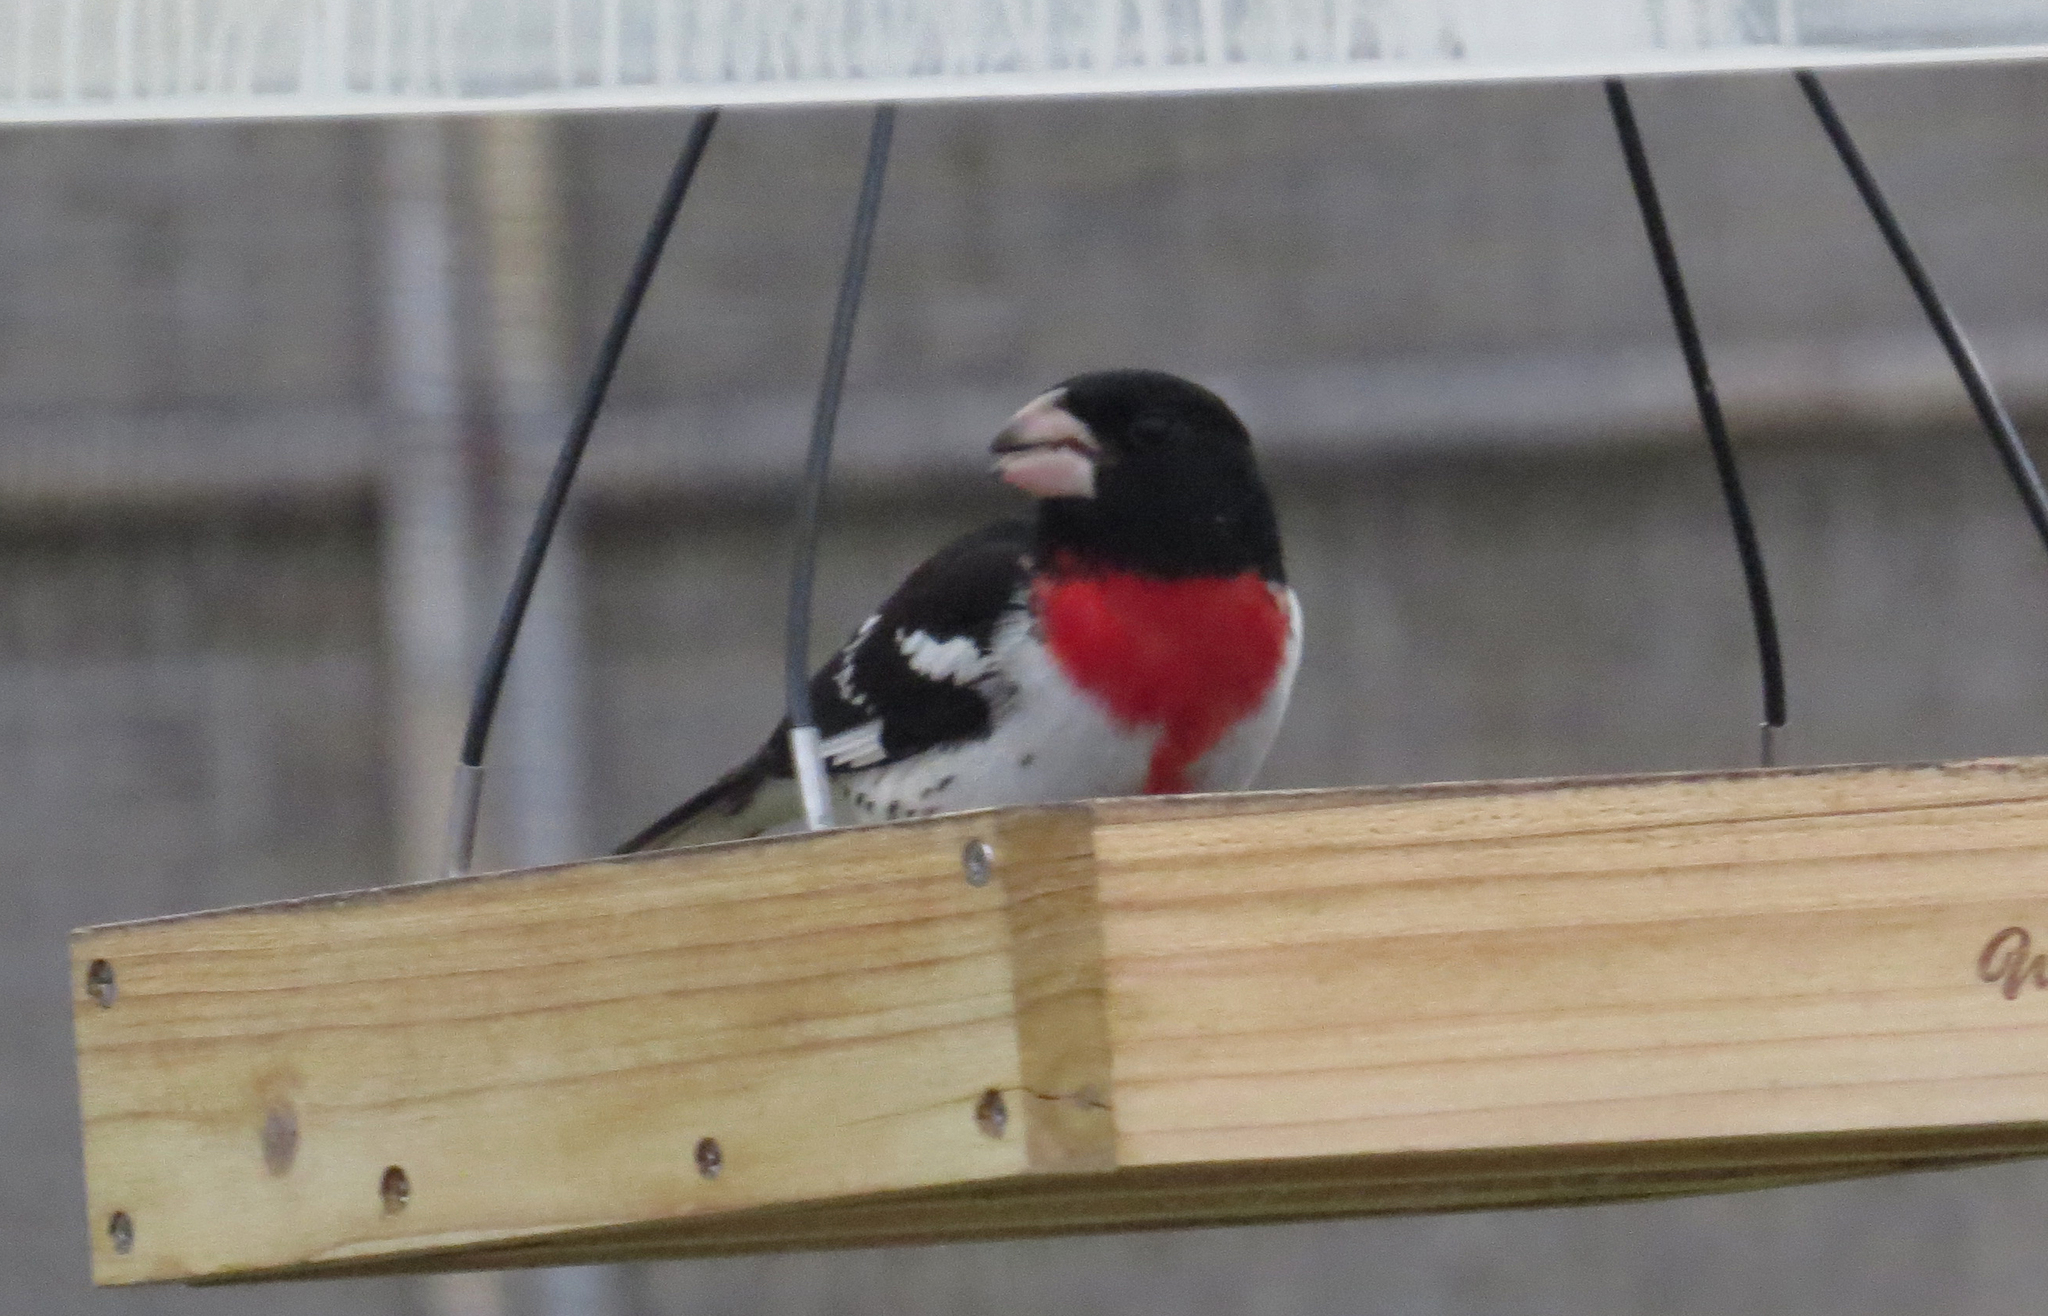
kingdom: Animalia
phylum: Chordata
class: Aves
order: Passeriformes
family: Cardinalidae
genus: Pheucticus
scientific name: Pheucticus ludovicianus
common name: Rose-breasted grosbeak
